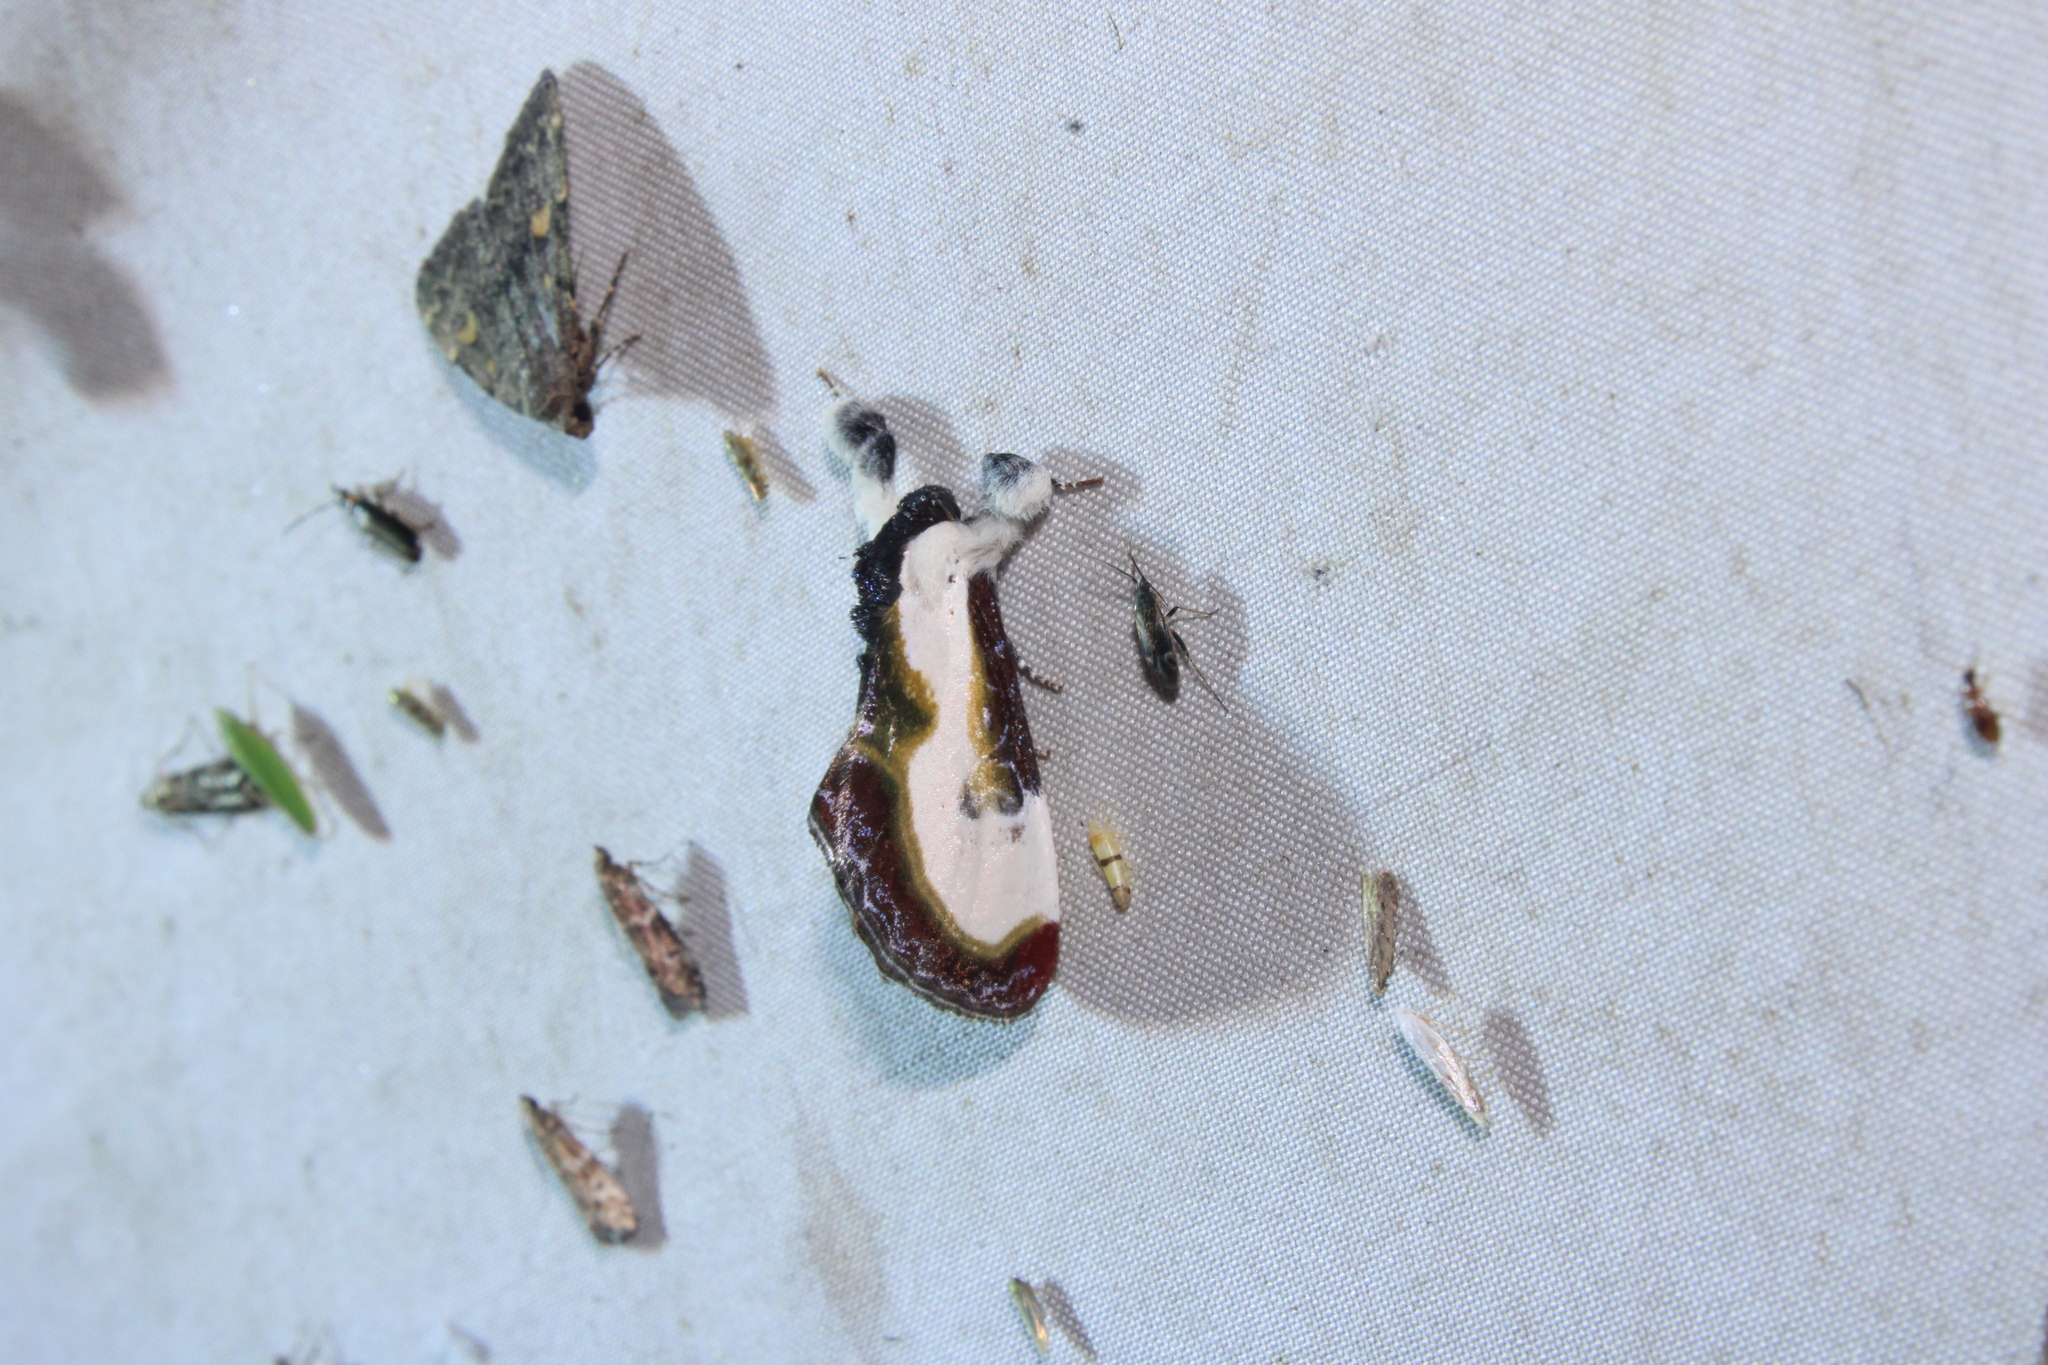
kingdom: Animalia
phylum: Arthropoda
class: Insecta
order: Lepidoptera
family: Noctuidae
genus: Eudryas
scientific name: Eudryas grata
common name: Beautiful wood-nymph
